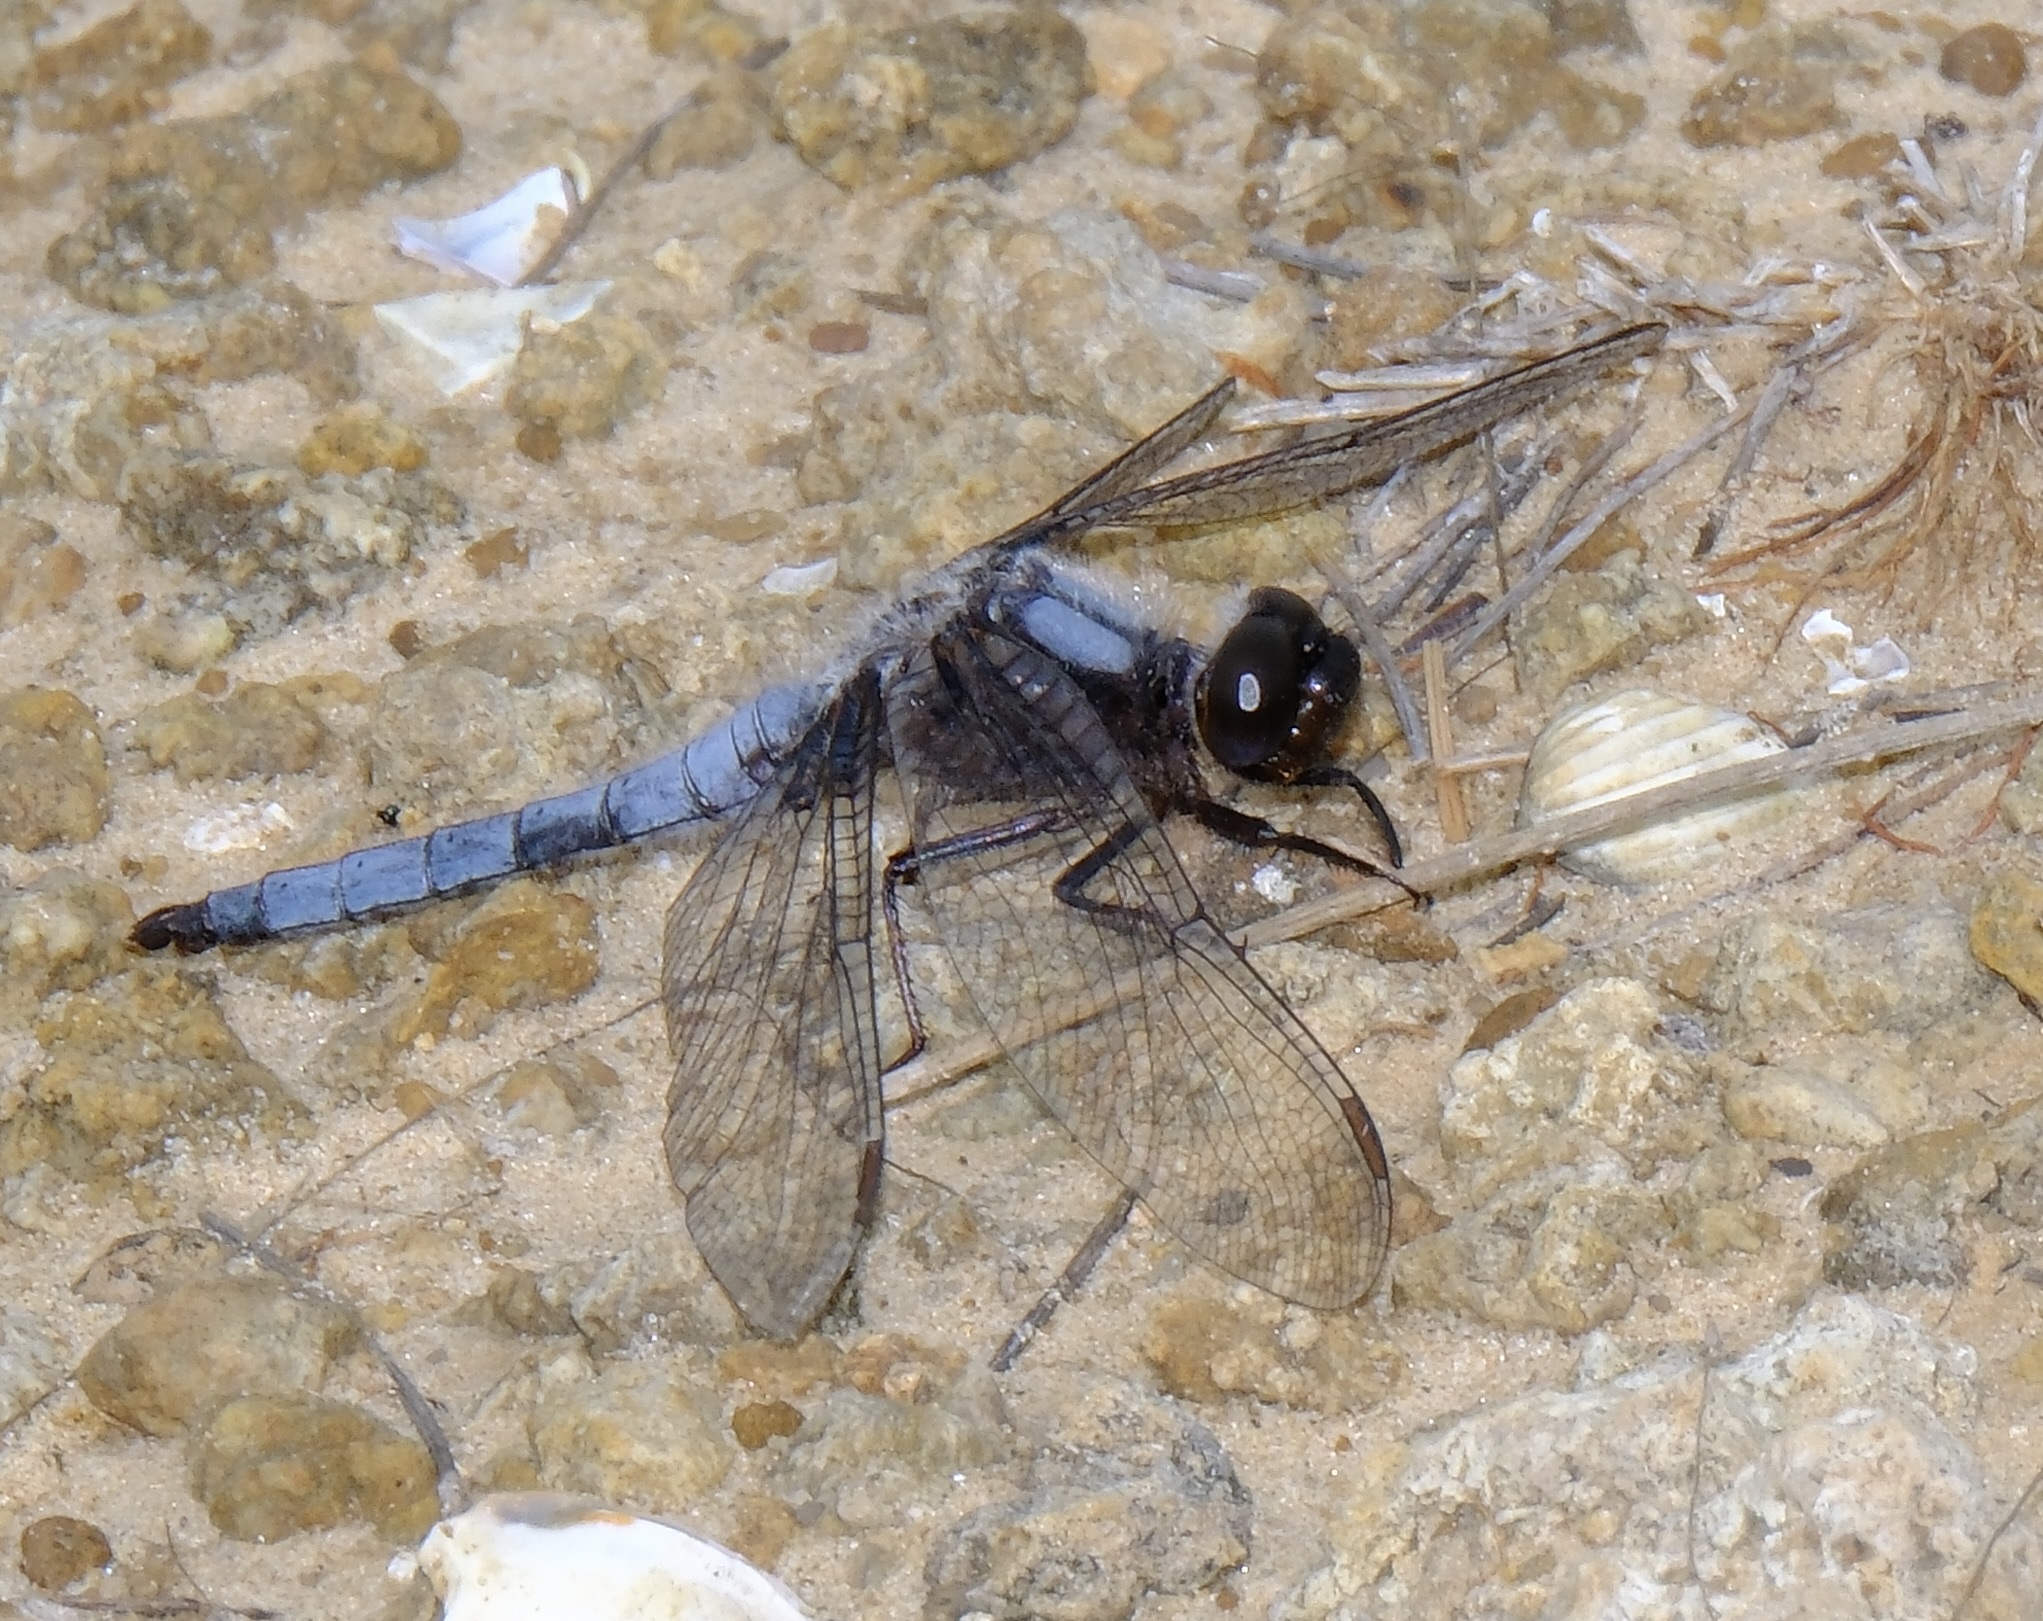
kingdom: Animalia
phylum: Arthropoda
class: Insecta
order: Odonata
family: Libellulidae
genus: Ladona
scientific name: Ladona deplanata
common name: Blue corporal
